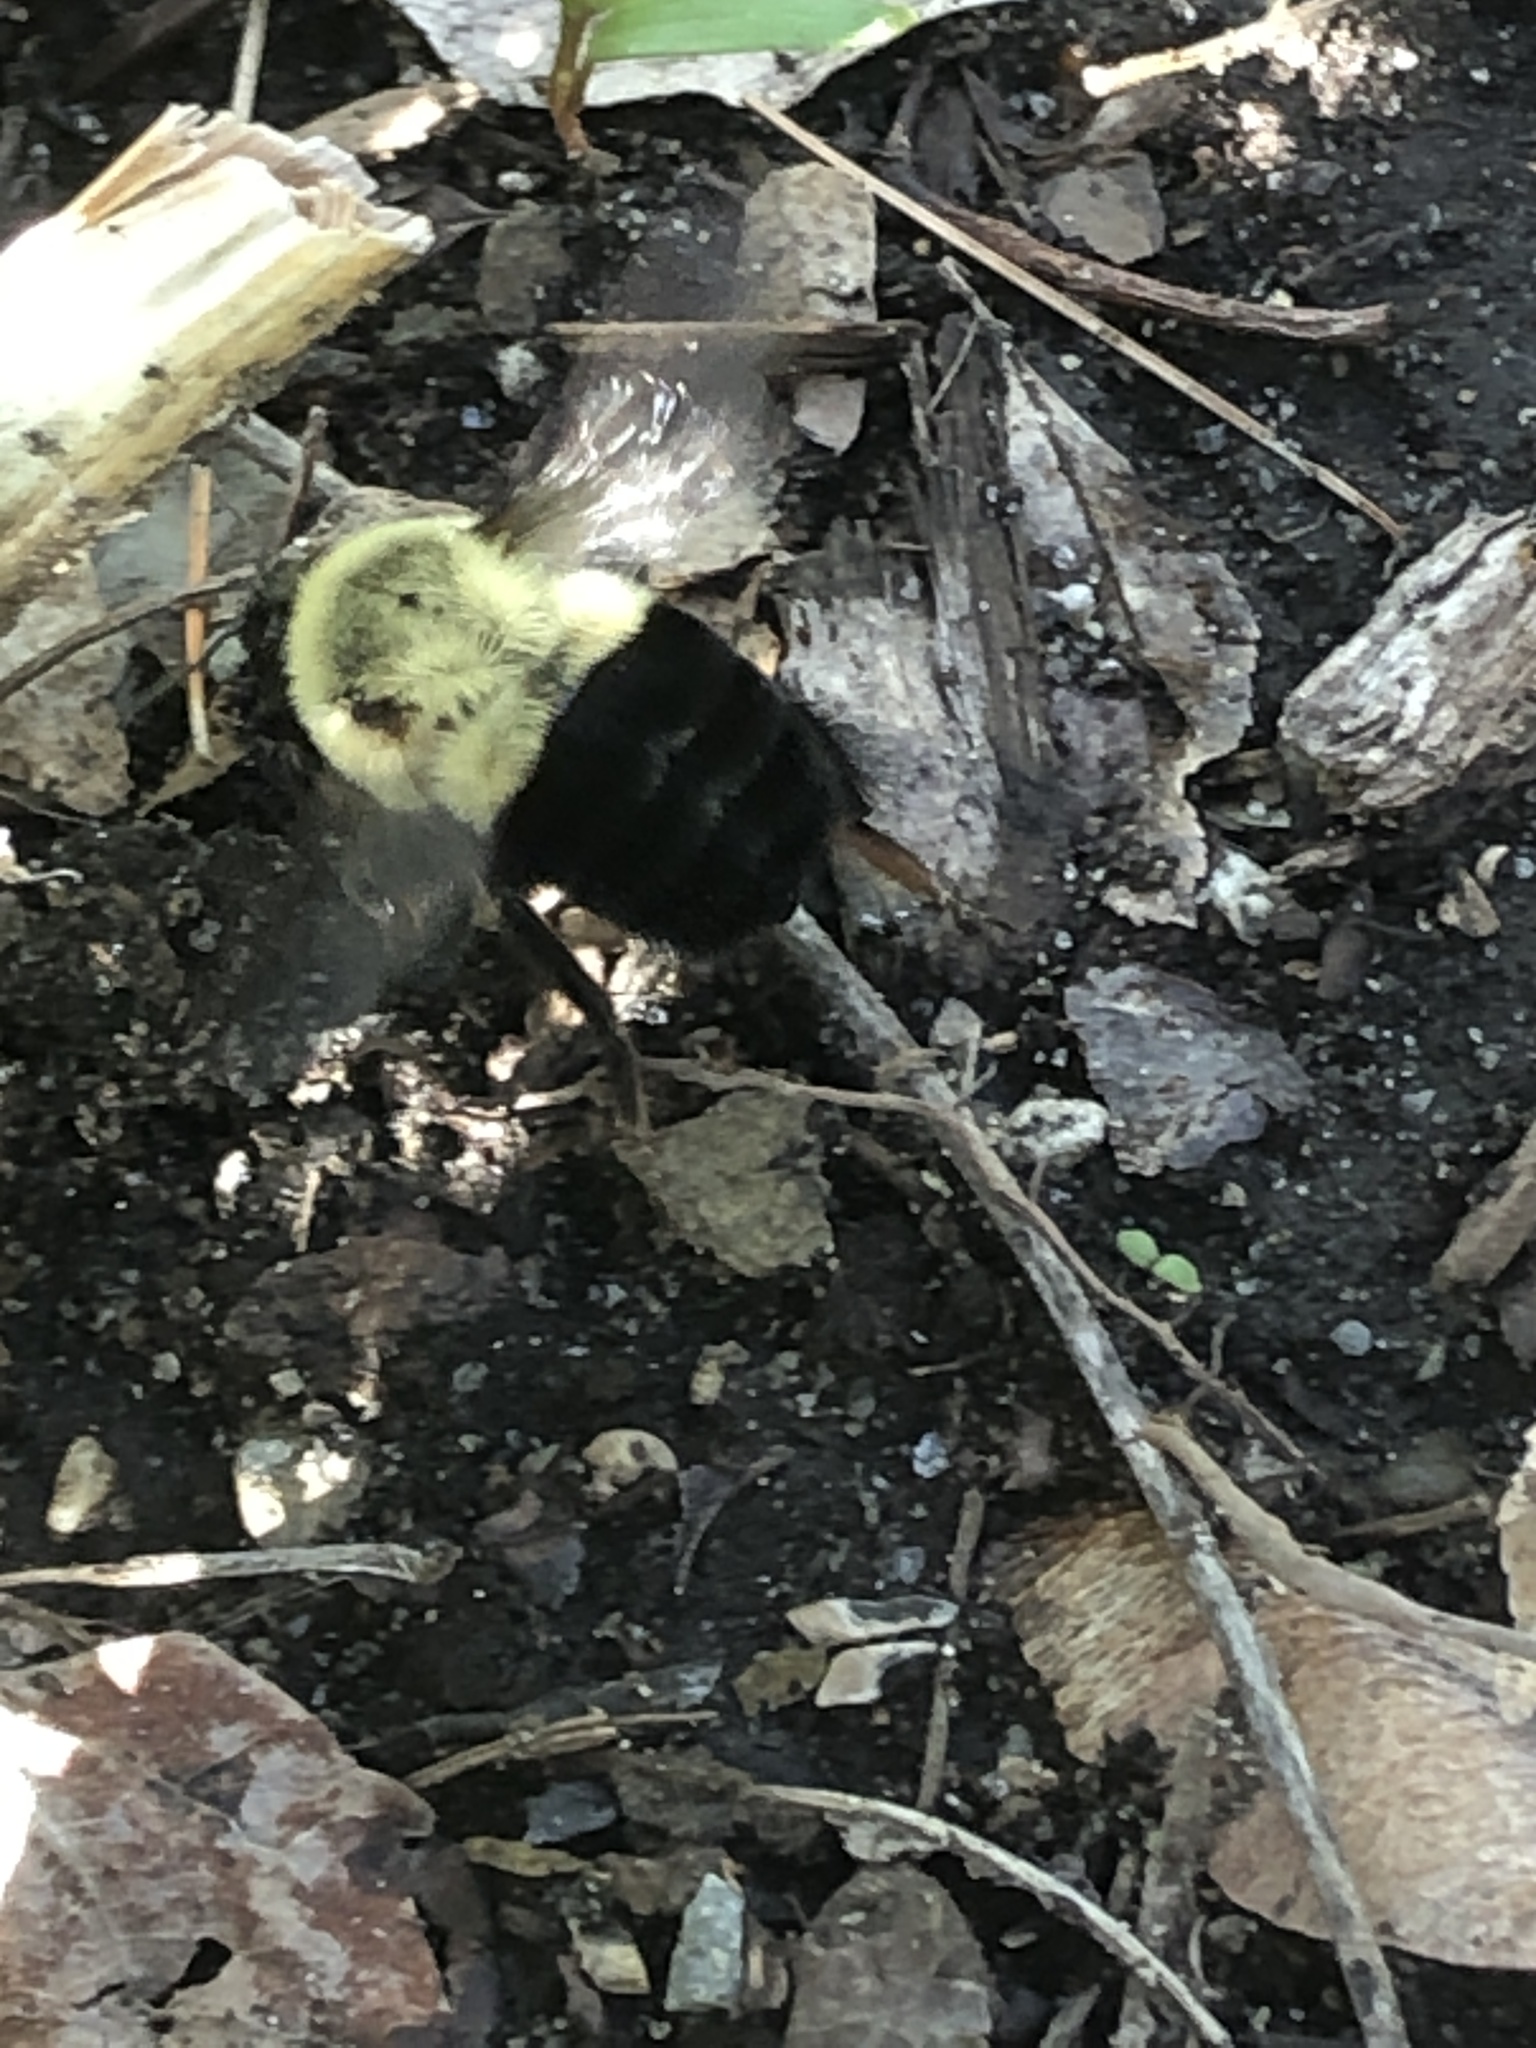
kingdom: Animalia
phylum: Arthropoda
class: Insecta
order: Hymenoptera
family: Apidae
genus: Bombus
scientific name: Bombus impatiens
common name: Common eastern bumble bee
